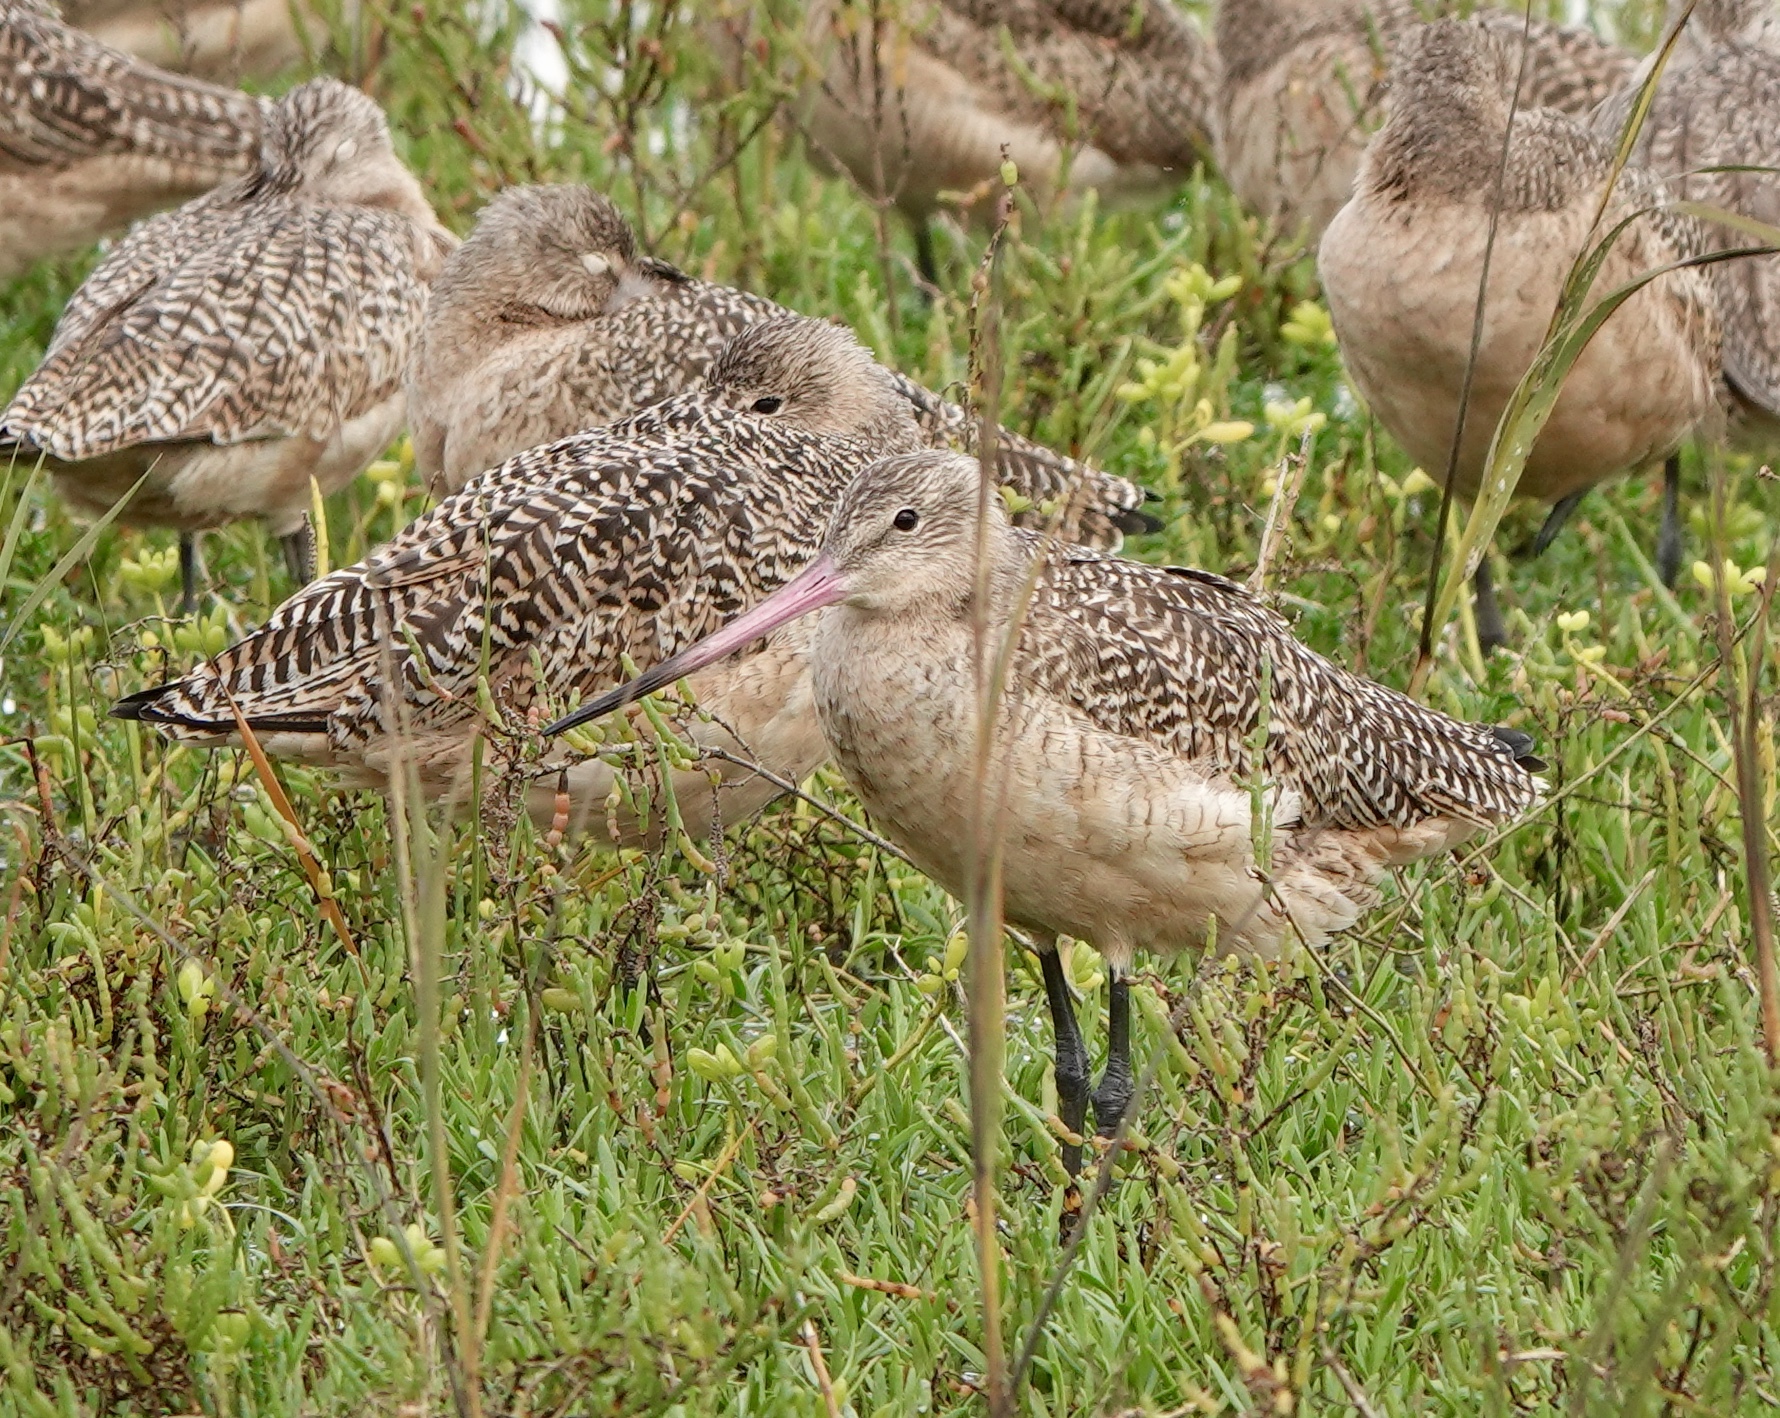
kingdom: Animalia
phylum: Chordata
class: Aves
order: Charadriiformes
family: Scolopacidae
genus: Limosa
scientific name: Limosa fedoa
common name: Marbled godwit
